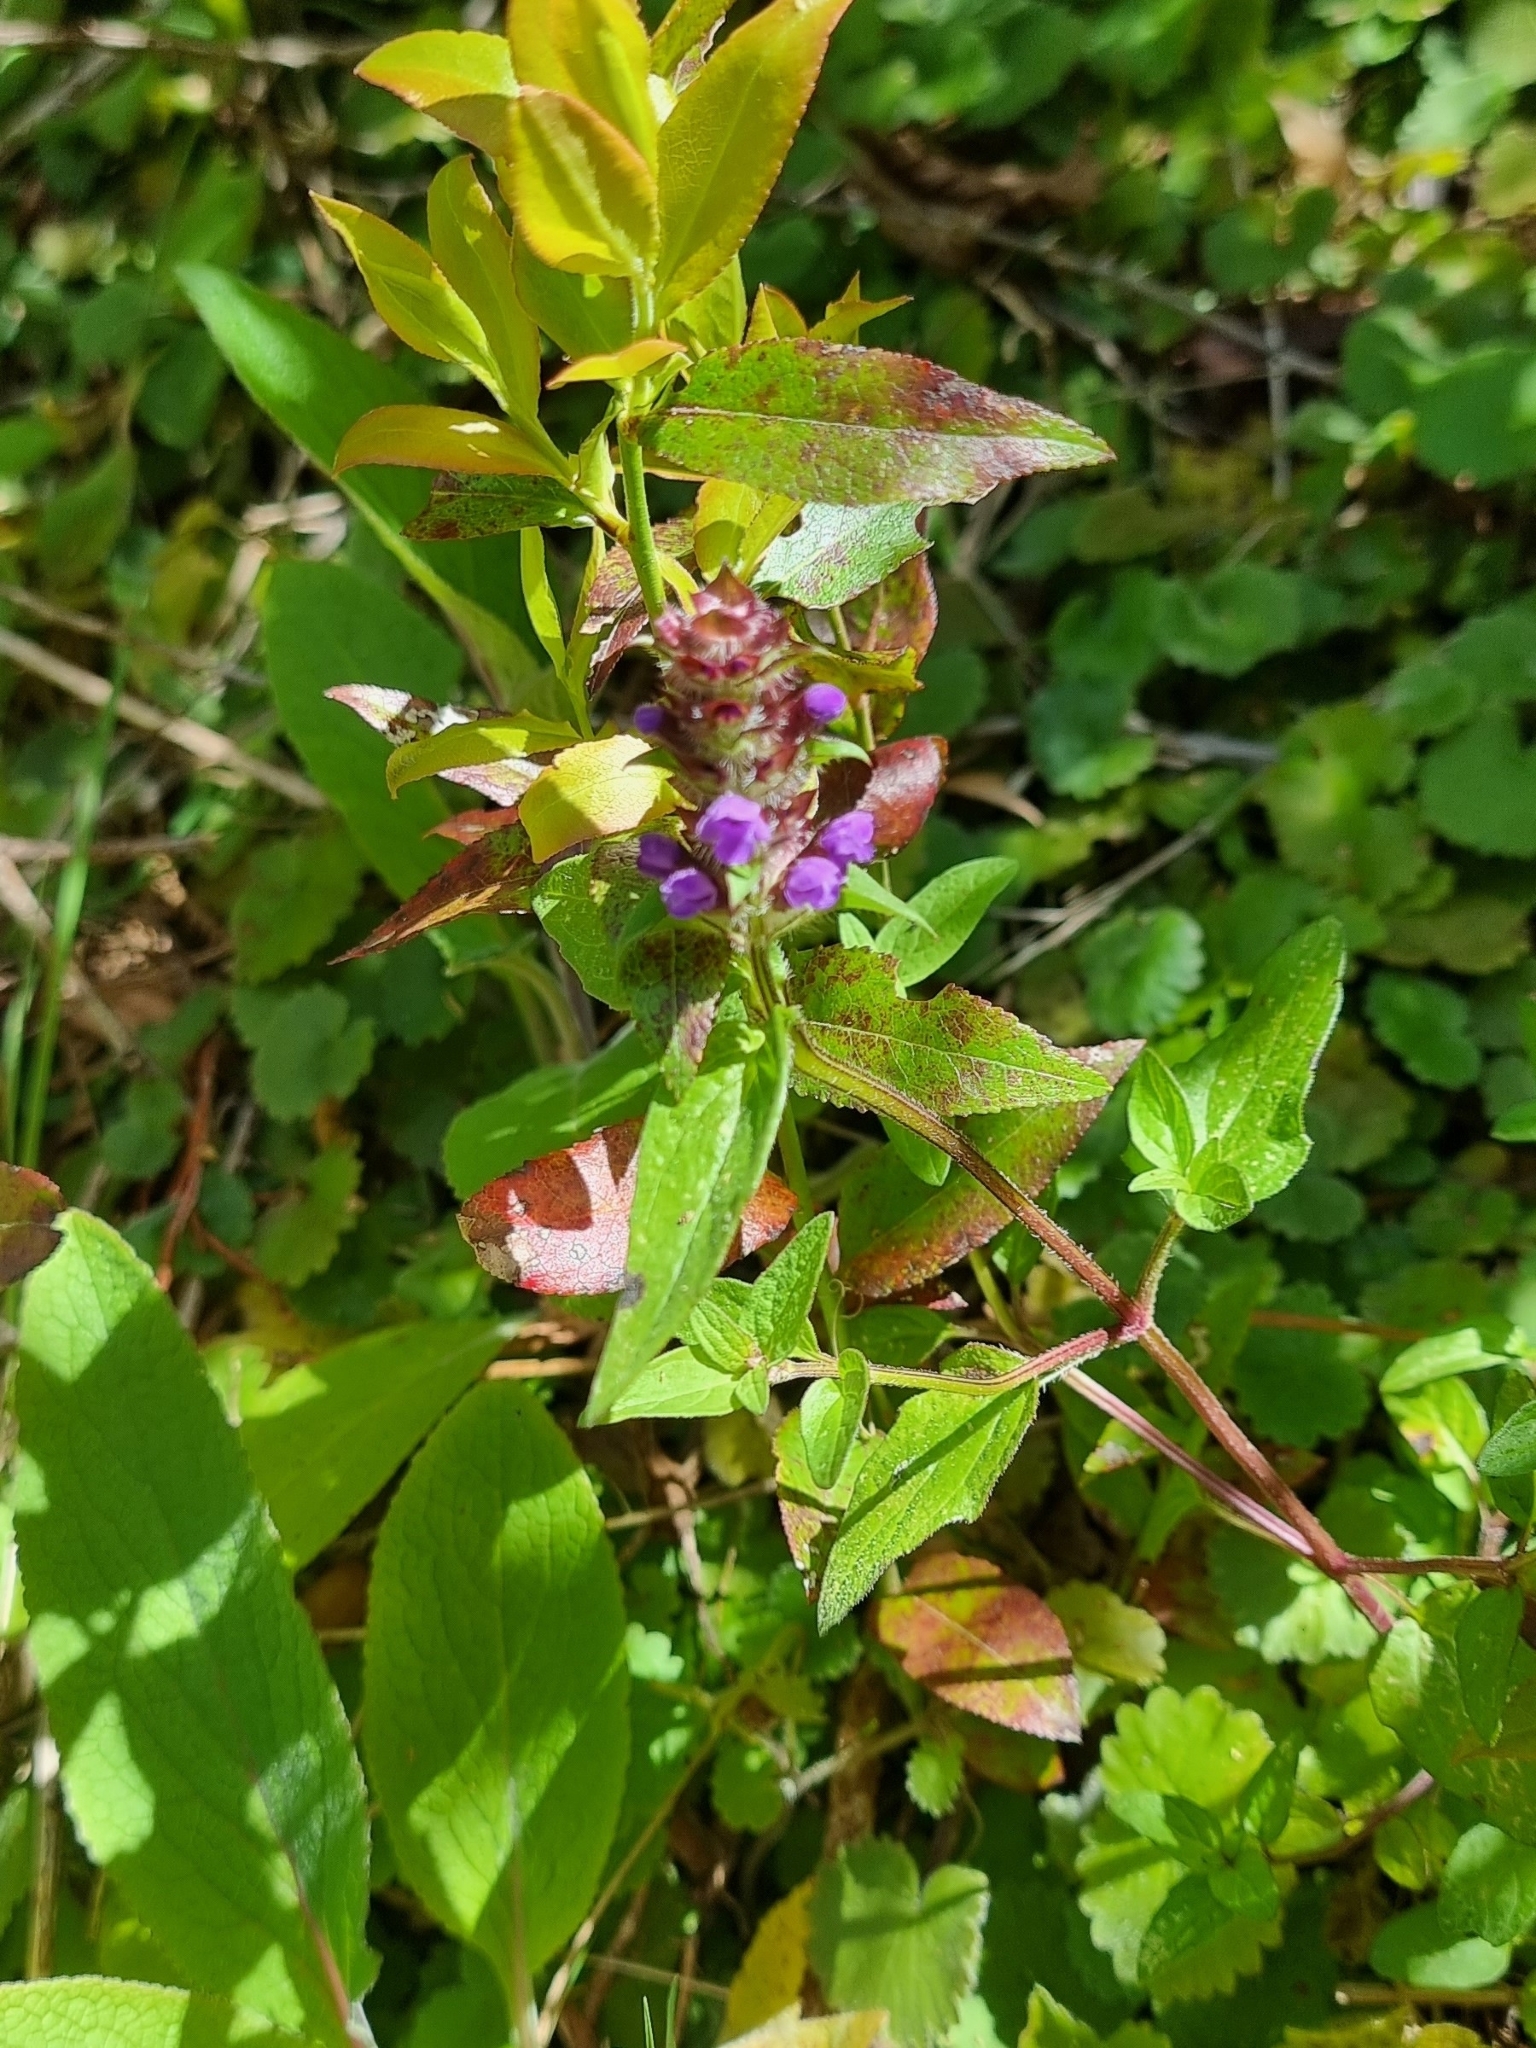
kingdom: Plantae
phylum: Tracheophyta
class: Magnoliopsida
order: Lamiales
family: Lamiaceae
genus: Prunella
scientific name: Prunella vulgaris
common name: Heal-all
